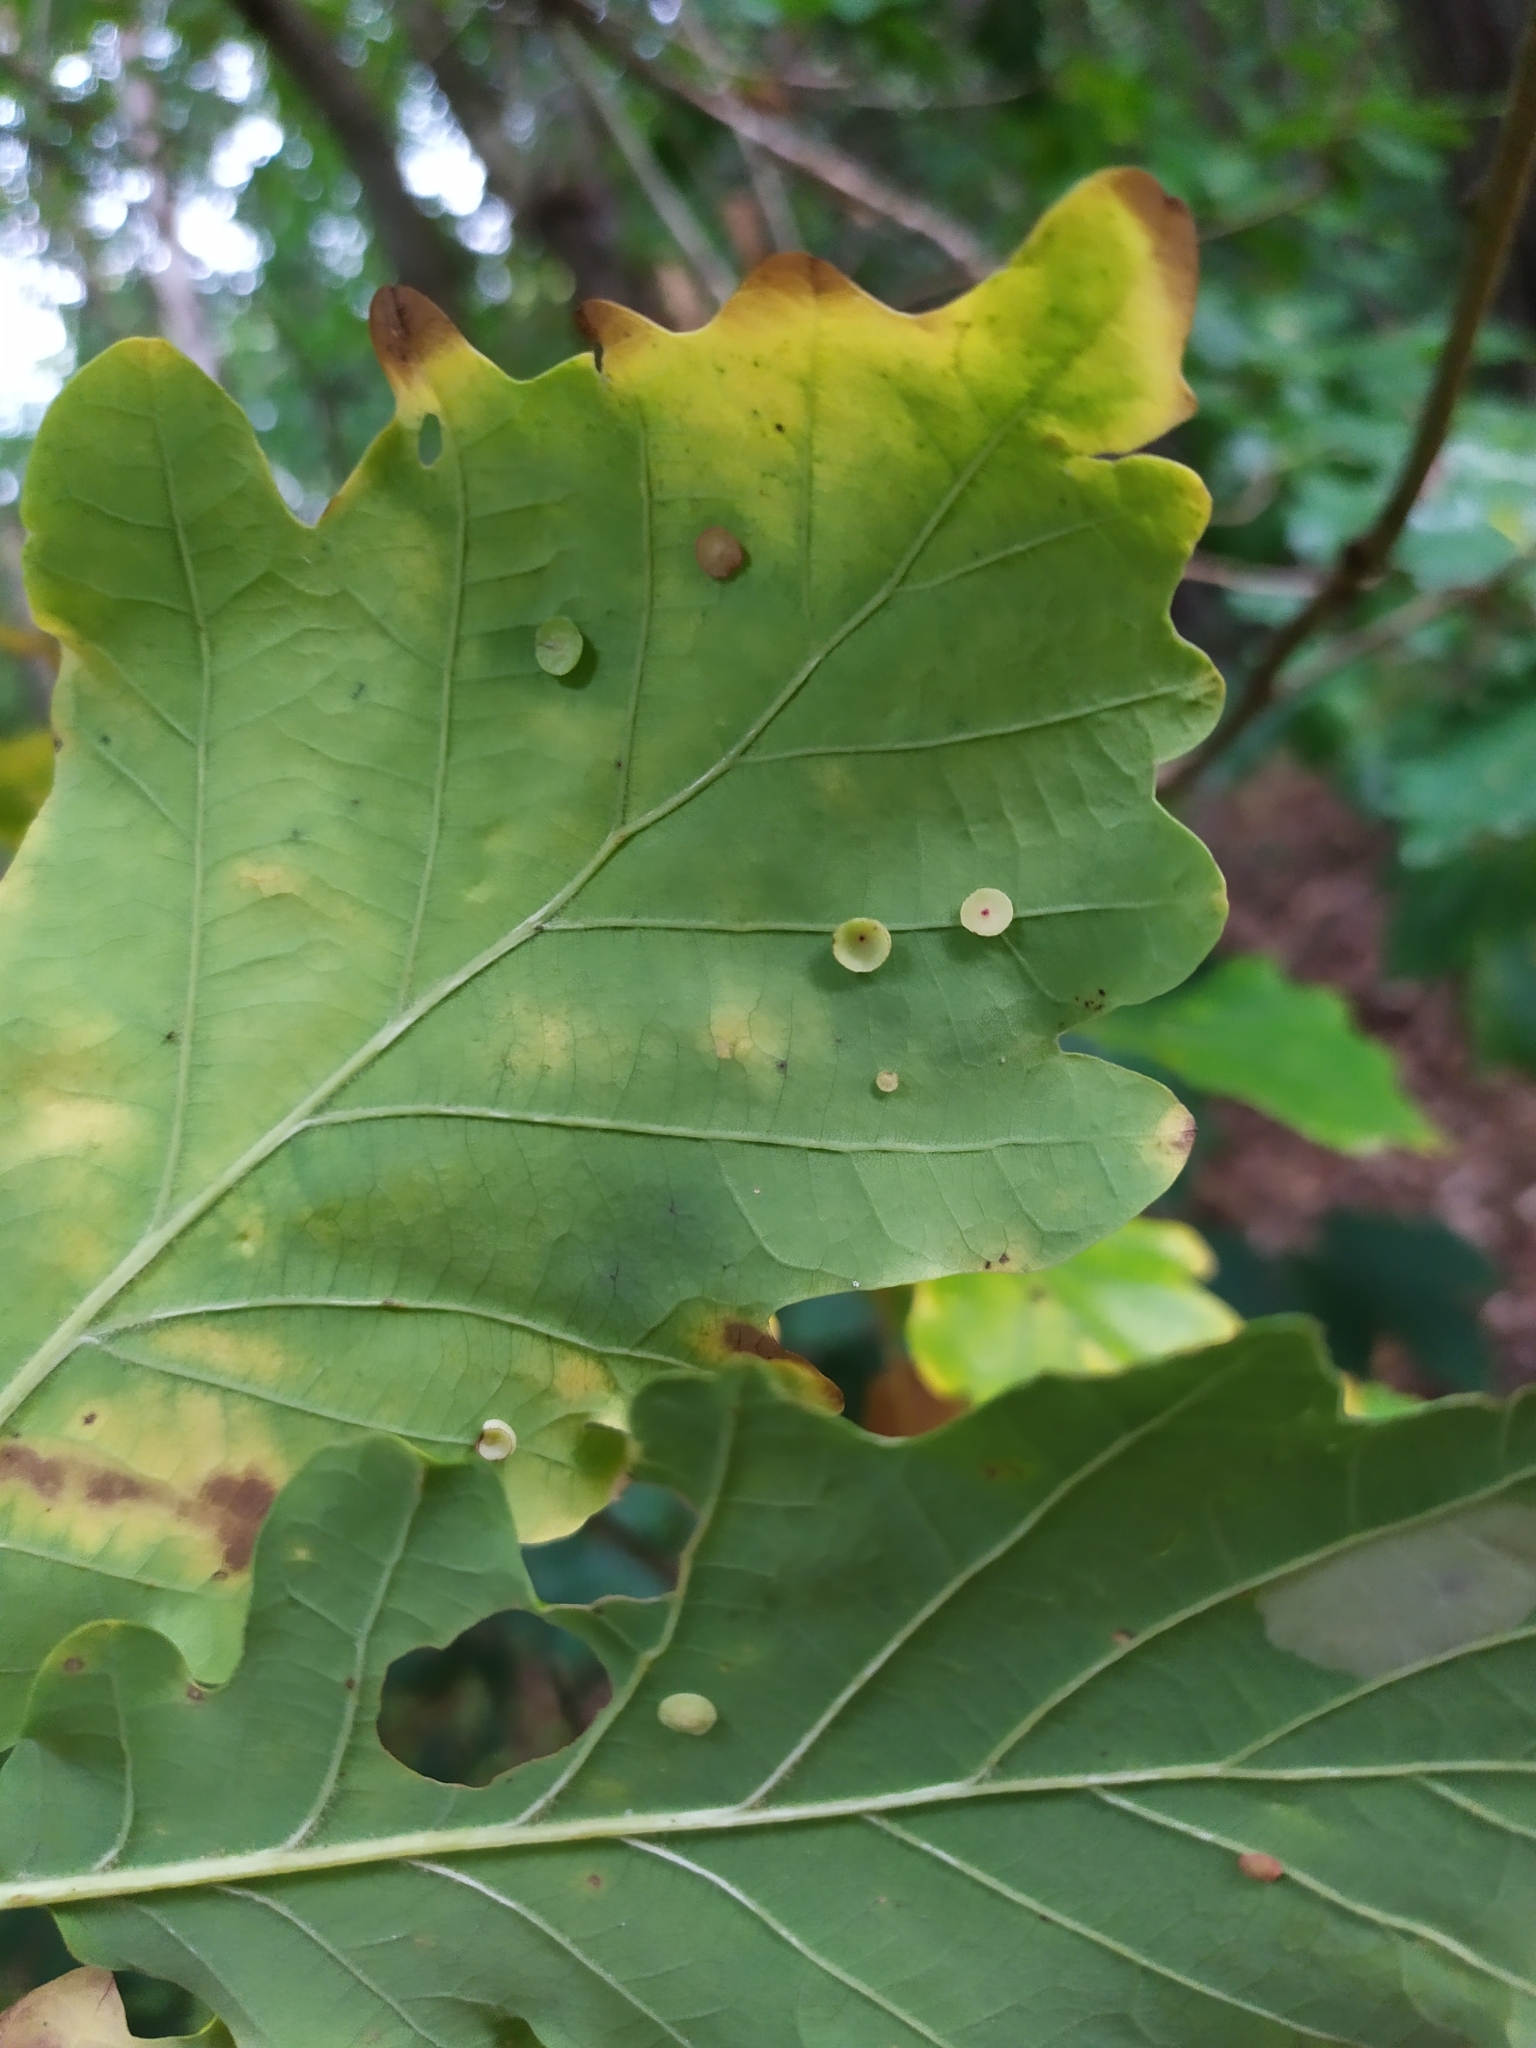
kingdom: Animalia
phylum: Arthropoda
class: Insecta
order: Hymenoptera
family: Cynipidae
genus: Neuroterus
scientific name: Neuroterus quercusbaccarum
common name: Common spangle gall
